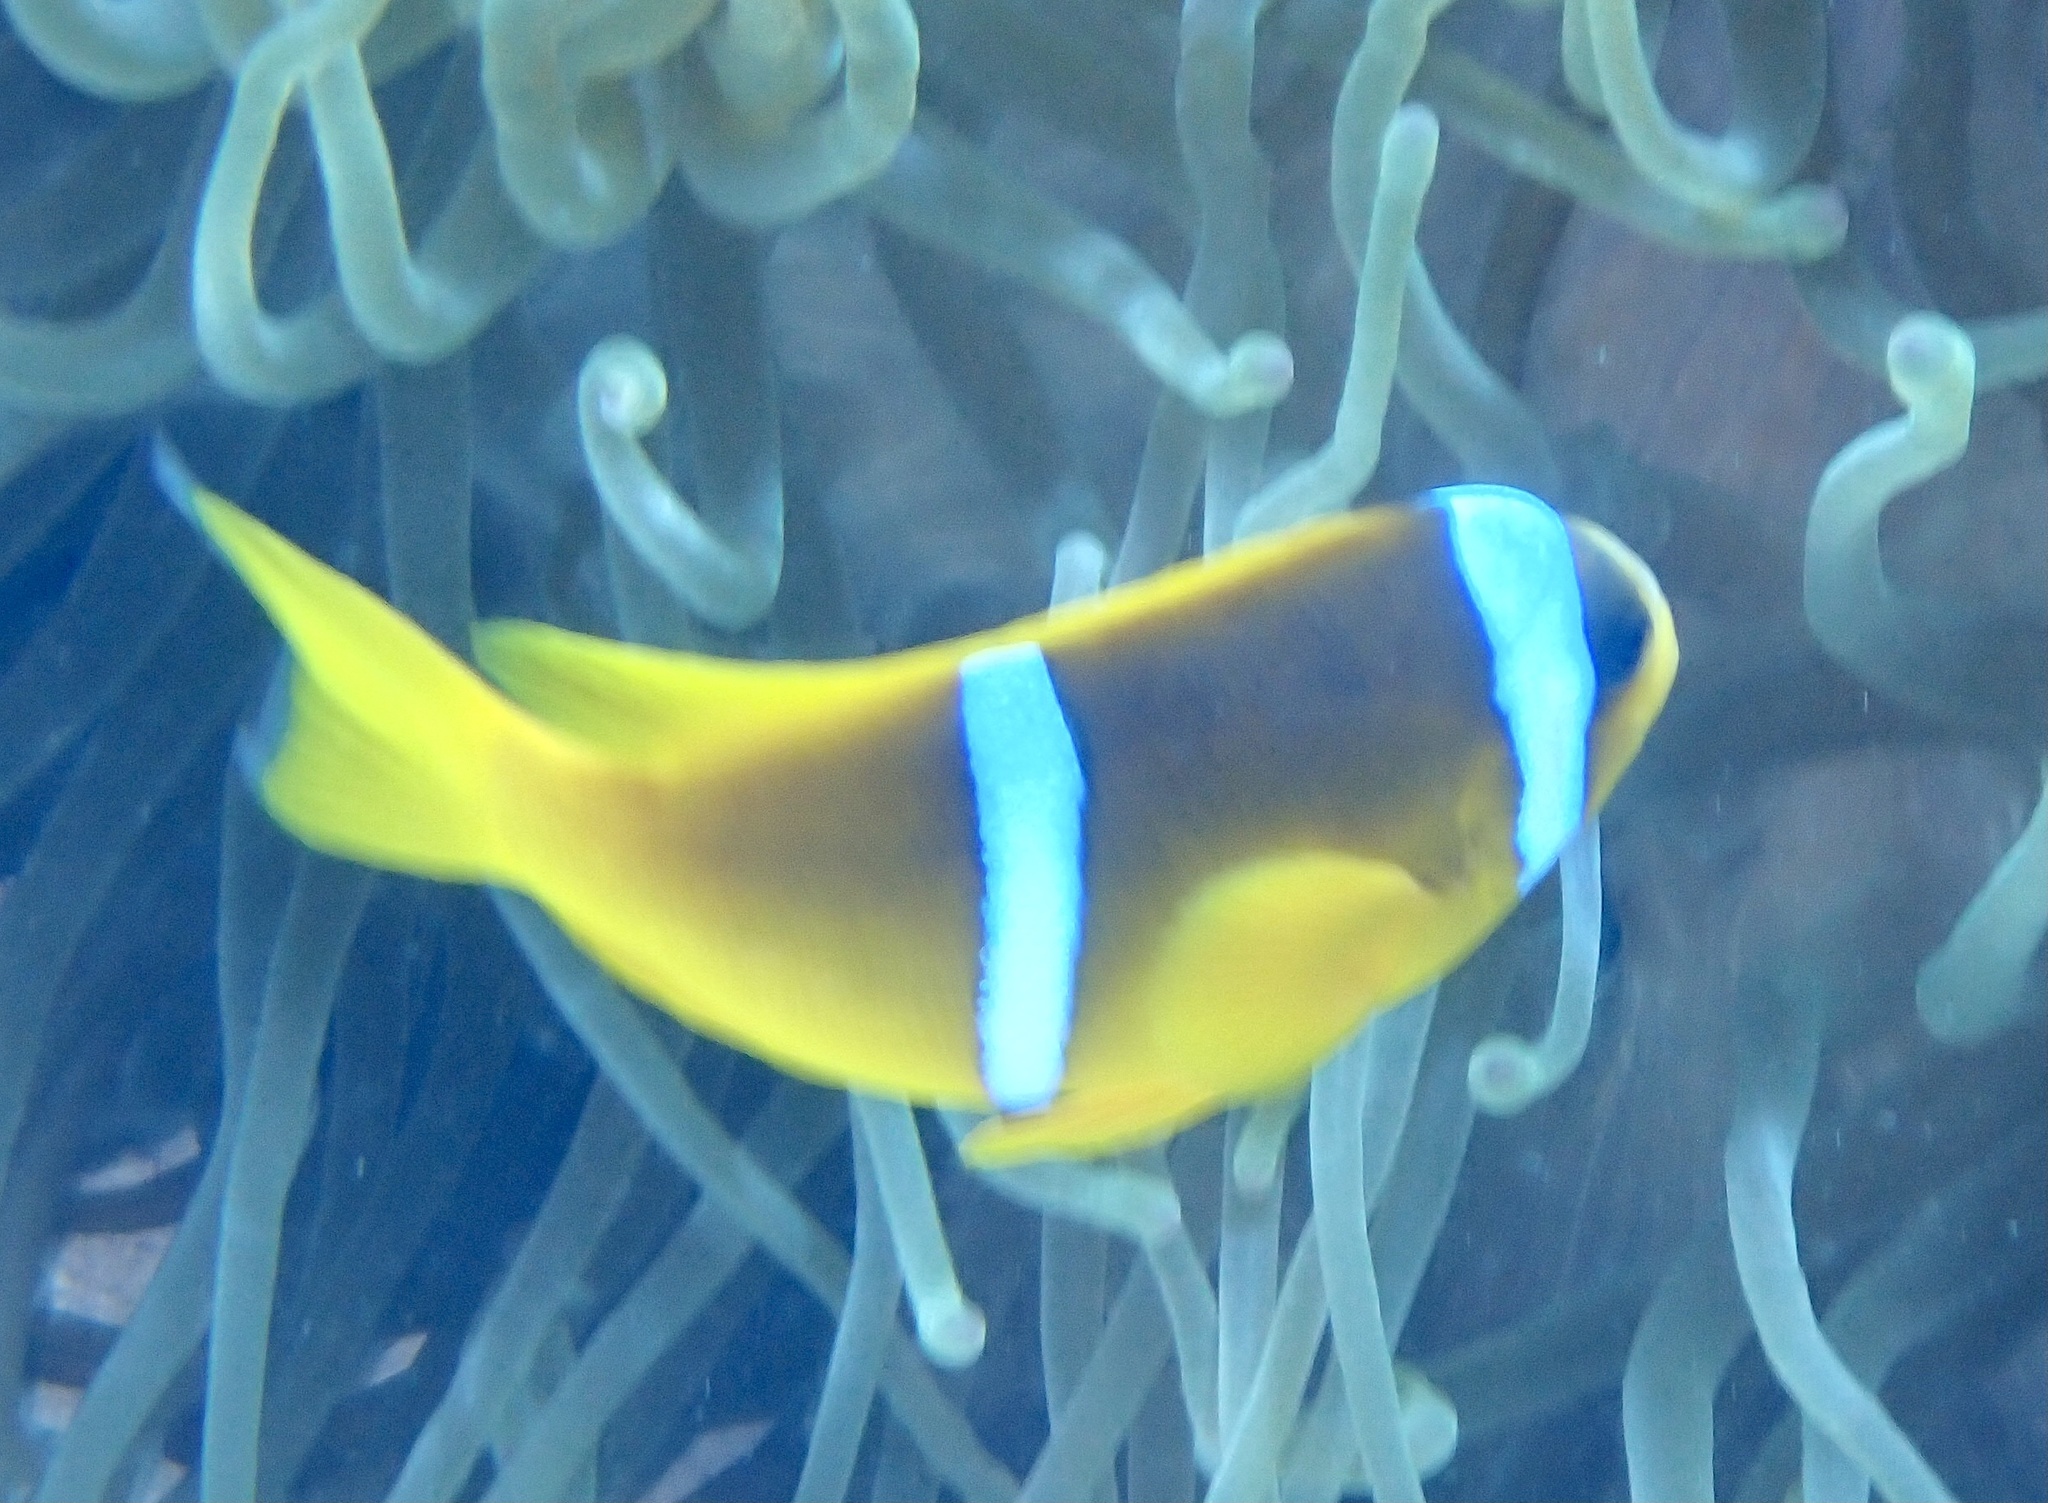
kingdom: Animalia
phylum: Chordata
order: Perciformes
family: Pomacentridae
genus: Amphiprion
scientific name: Amphiprion bicinctus
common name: Two-banded anemonefish
